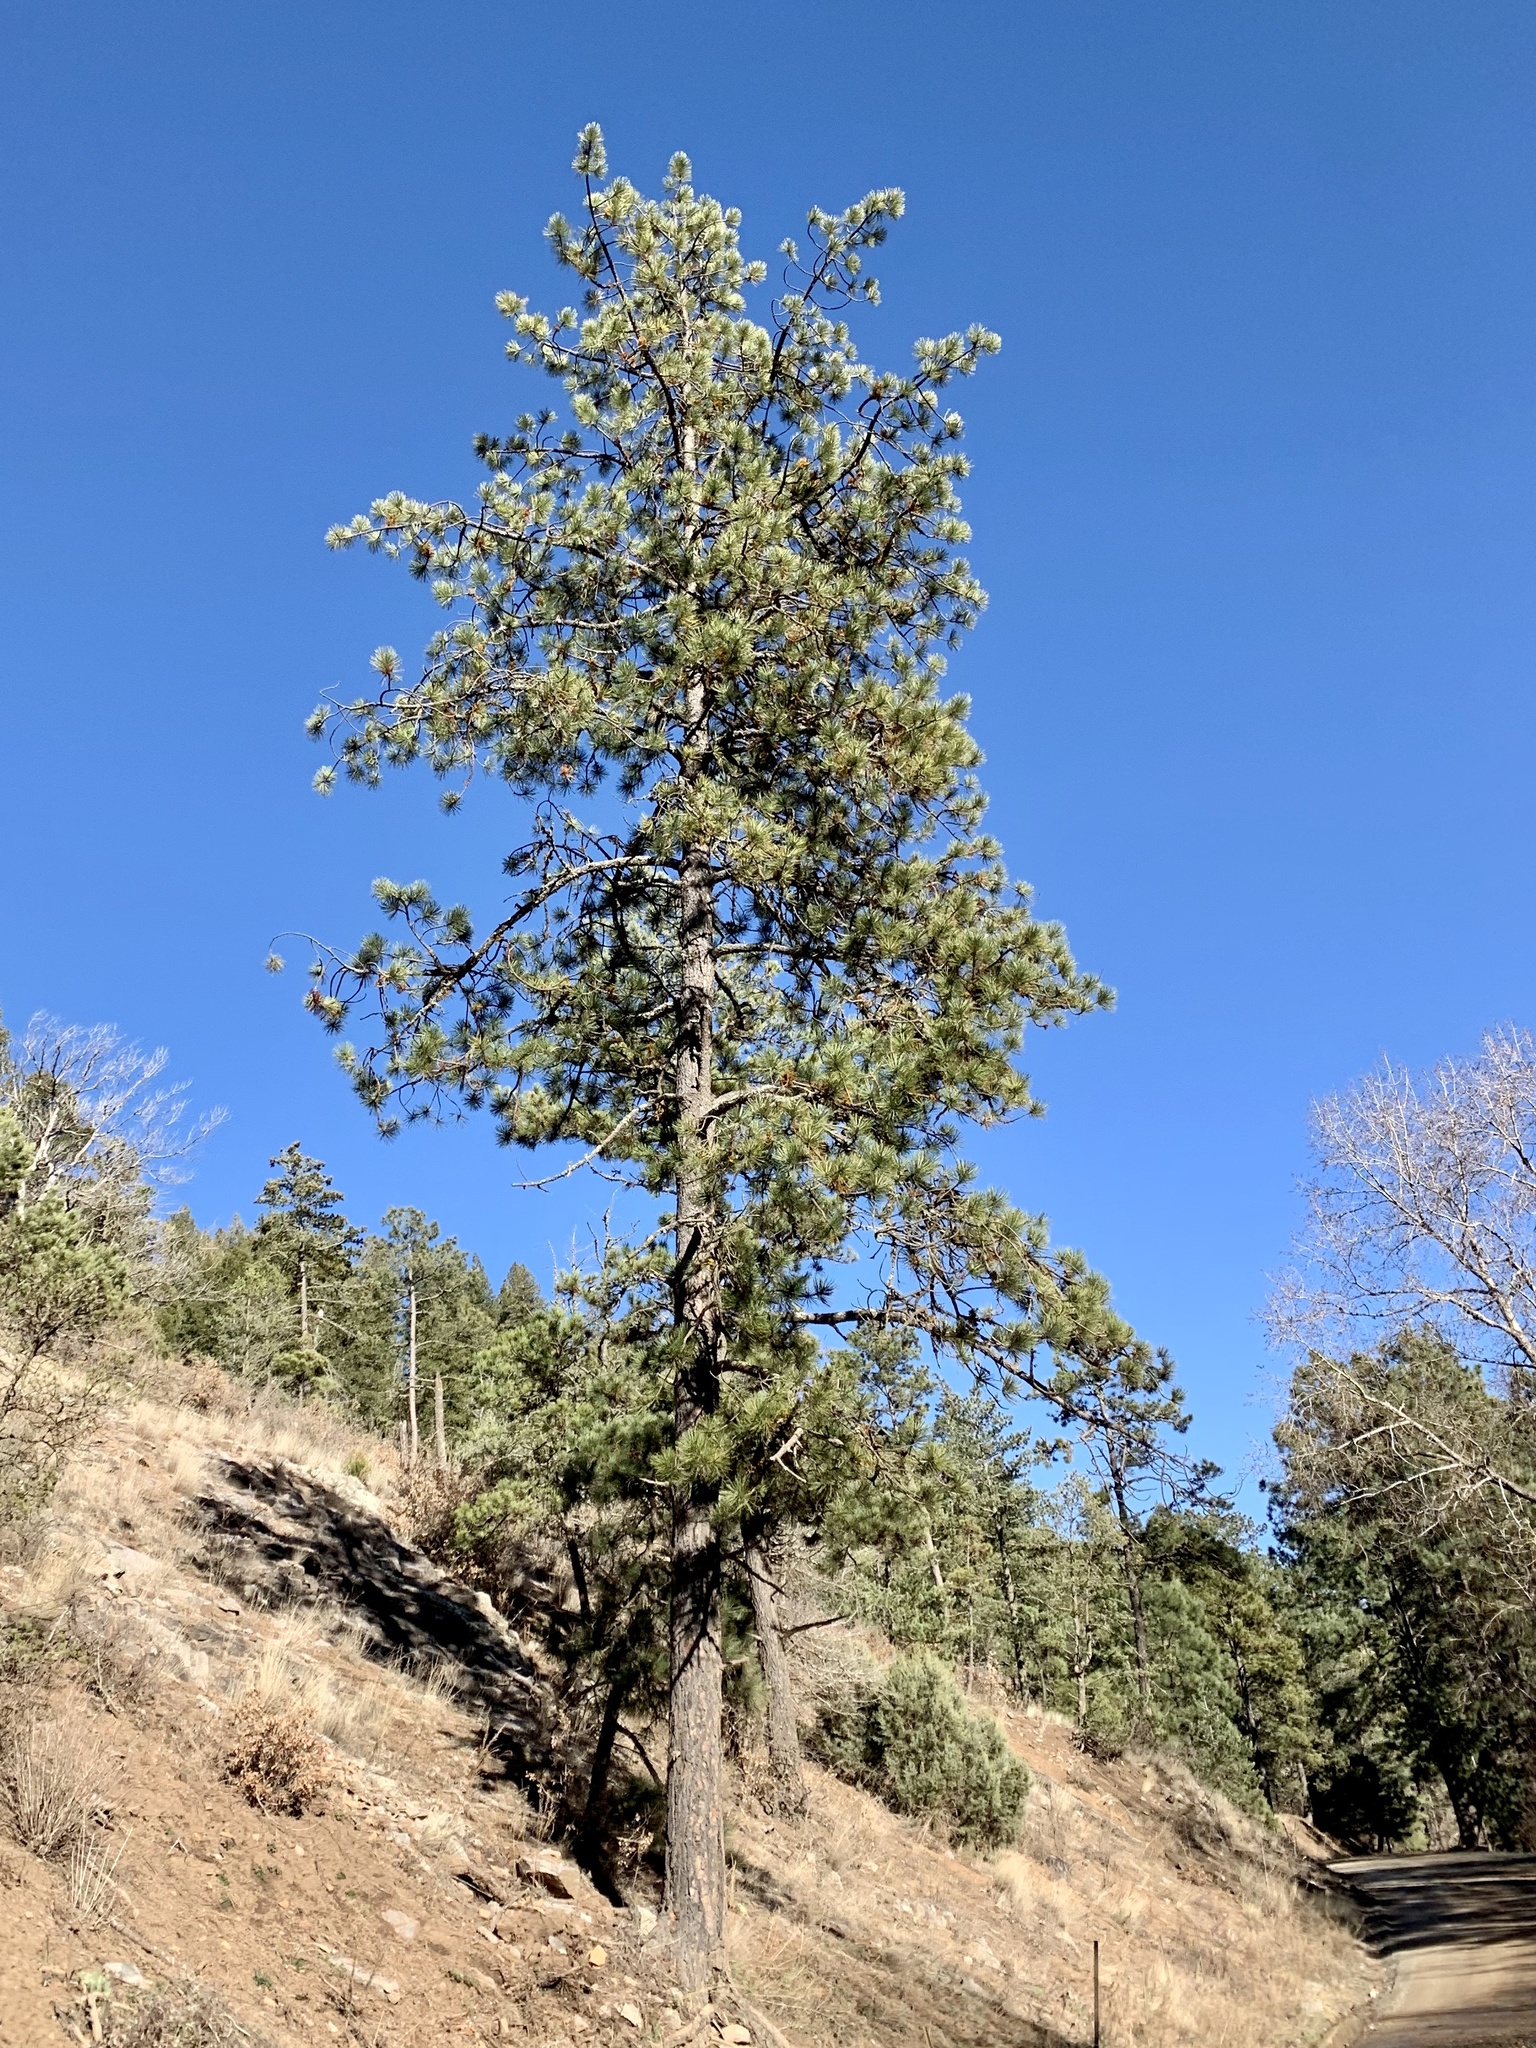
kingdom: Plantae
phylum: Tracheophyta
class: Pinopsida
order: Pinales
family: Pinaceae
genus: Pinus
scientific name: Pinus ponderosa
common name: Western yellow-pine
